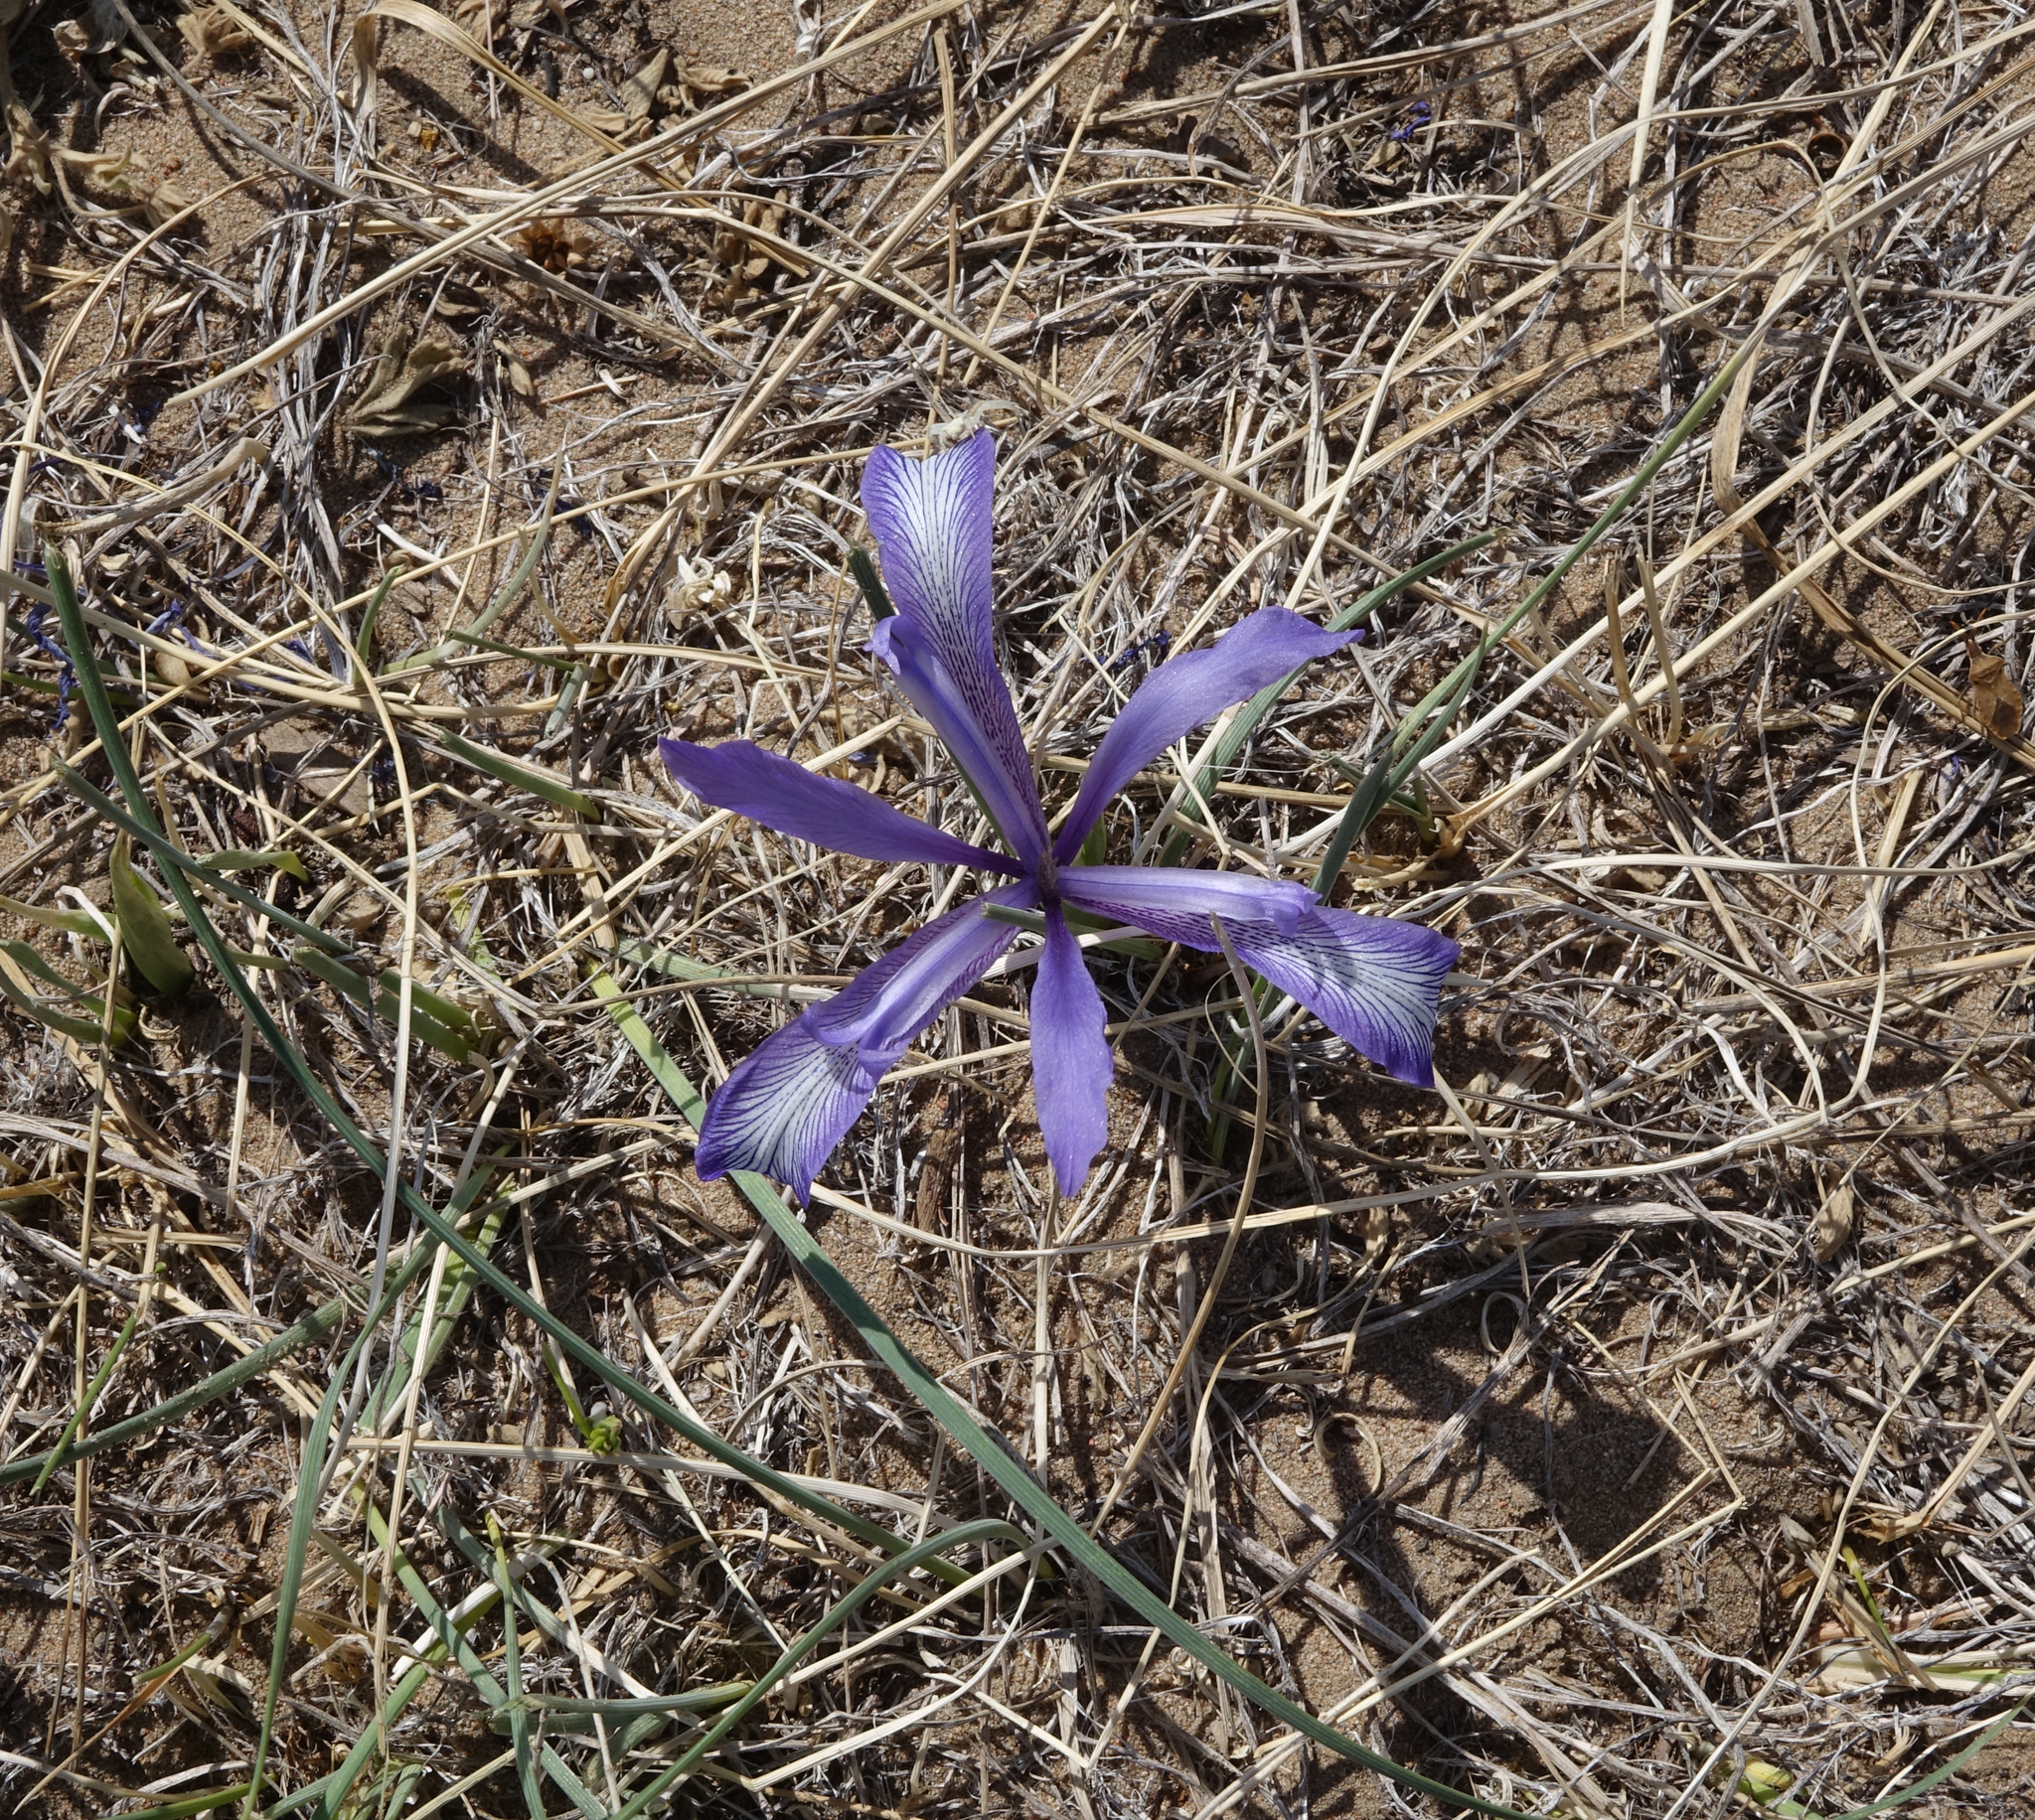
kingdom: Plantae
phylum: Tracheophyta
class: Liliopsida
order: Asparagales
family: Iridaceae
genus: Iris
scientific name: Iris tenuifolia
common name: Slender-leaf iris
